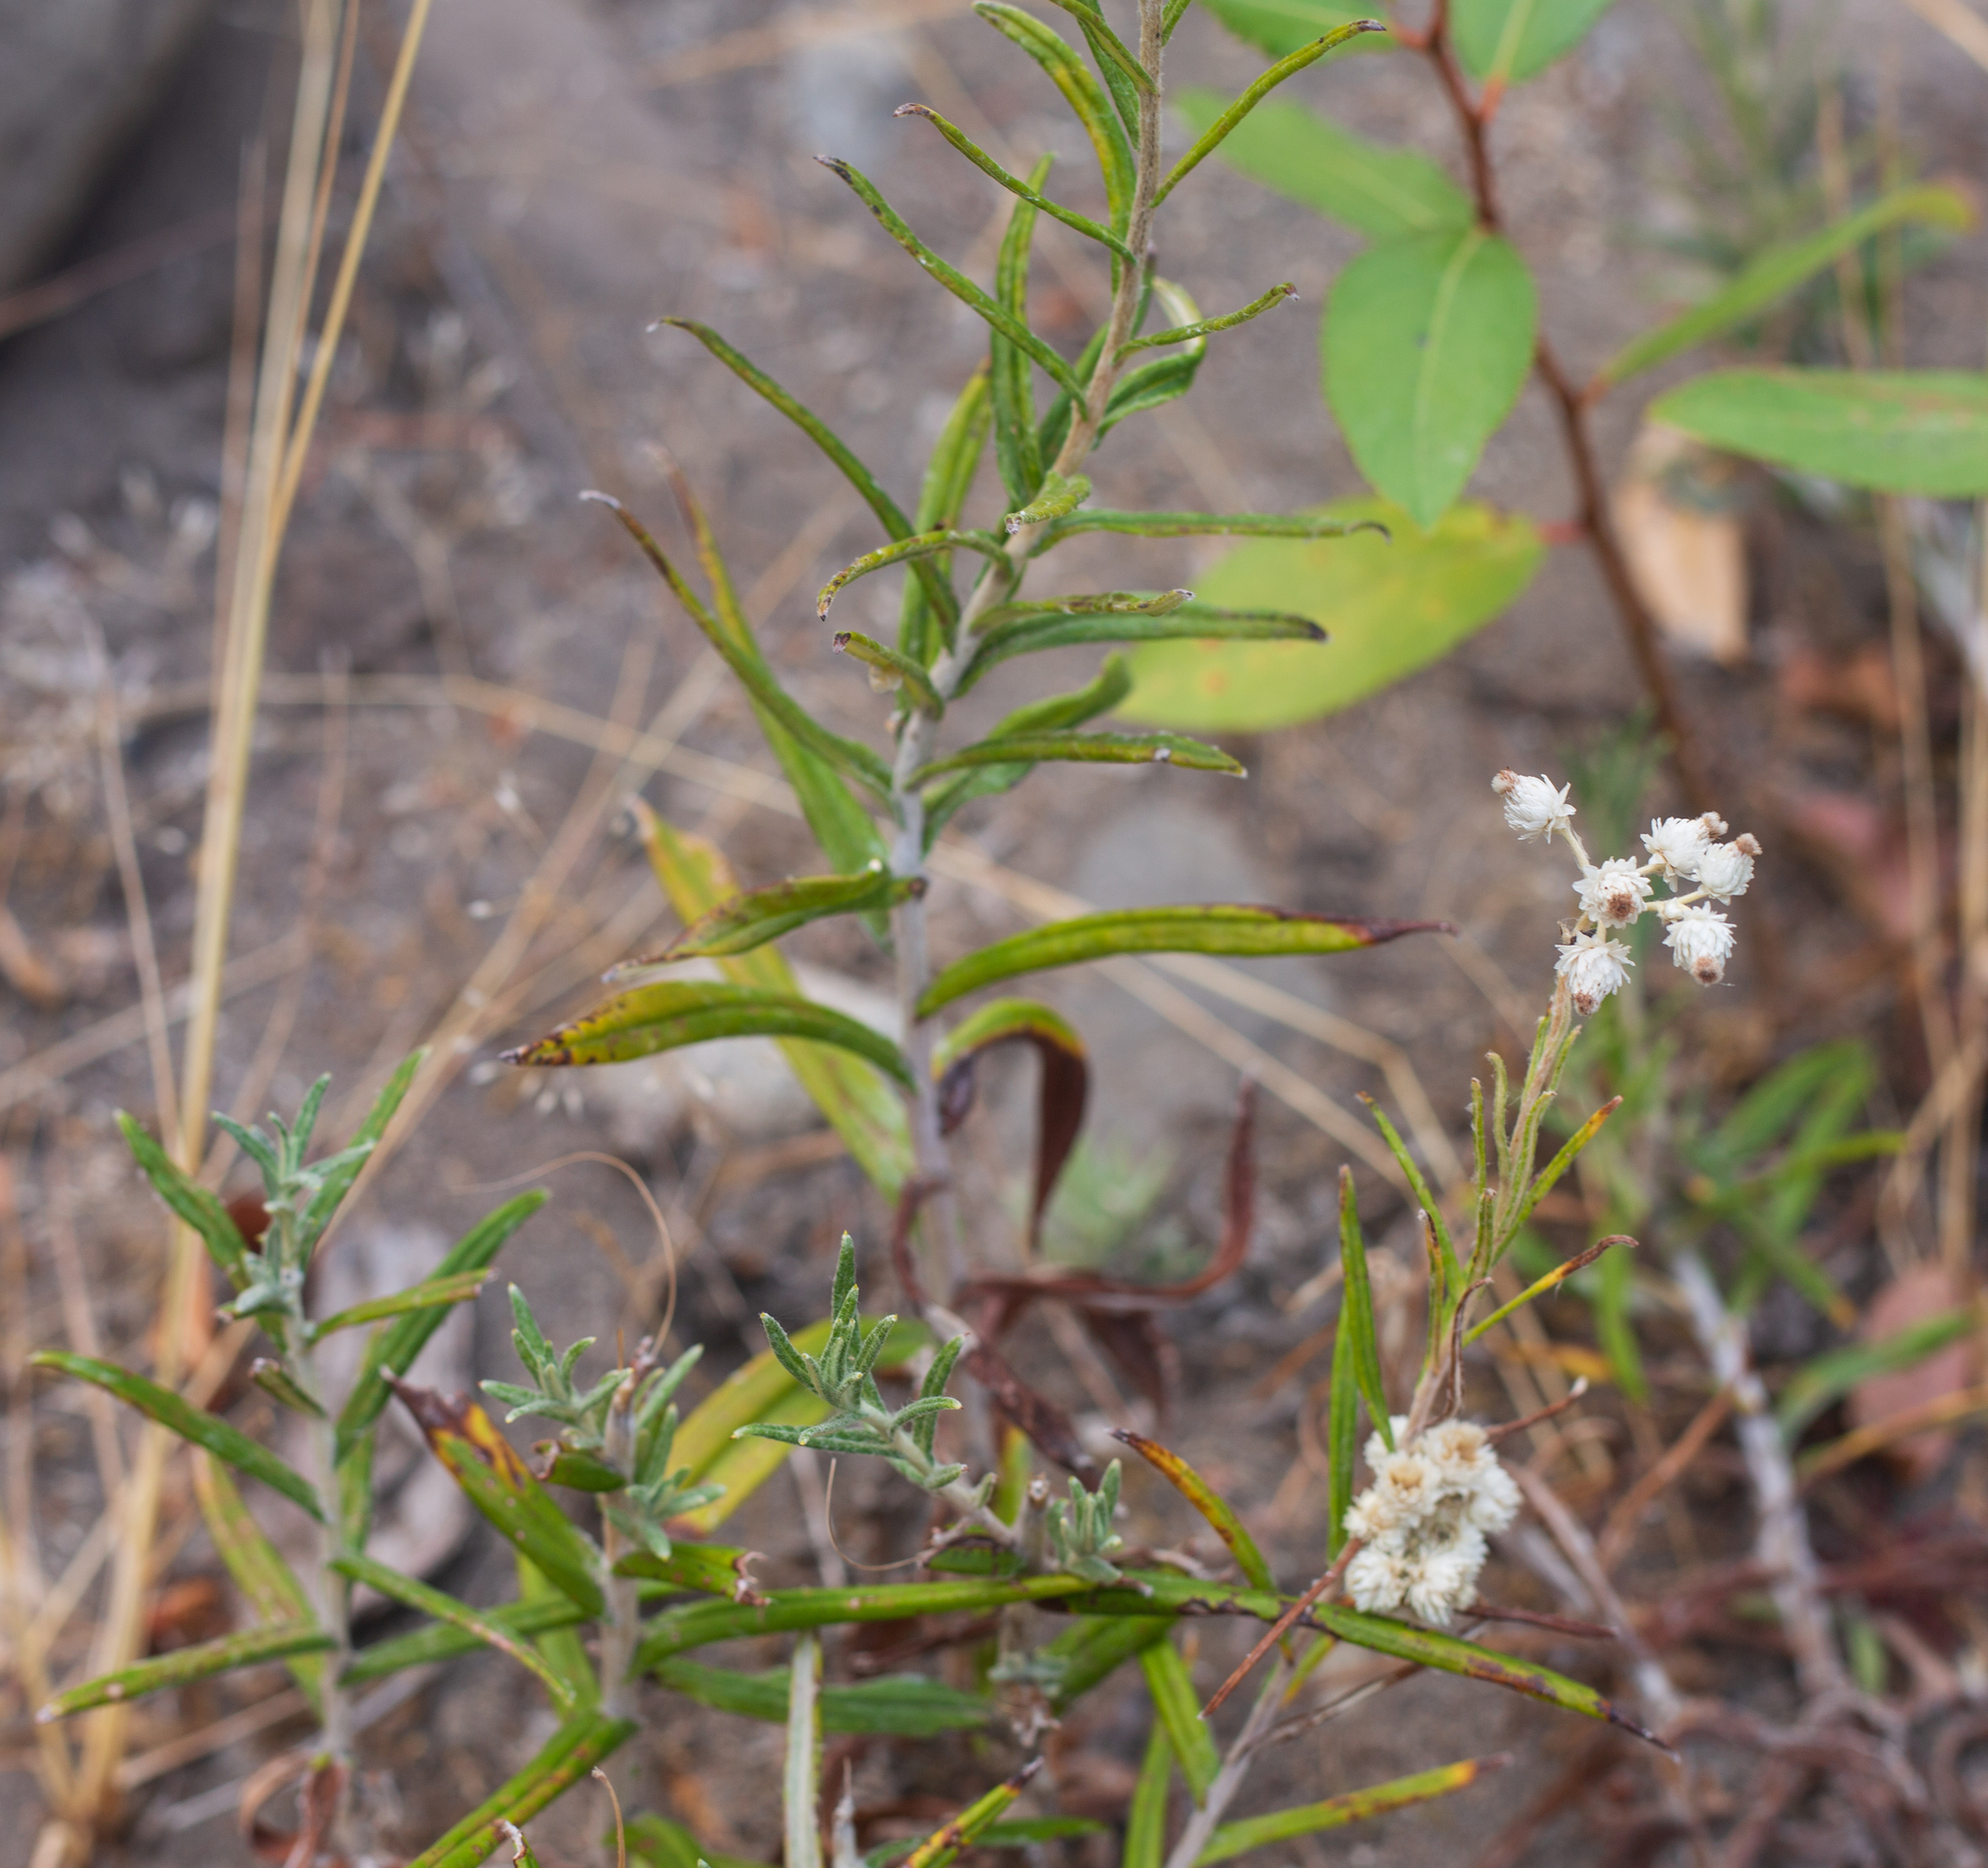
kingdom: Plantae
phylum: Tracheophyta
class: Magnoliopsida
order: Asterales
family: Asteraceae
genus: Anaphalis
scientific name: Anaphalis margaritacea
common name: Pearly everlasting
